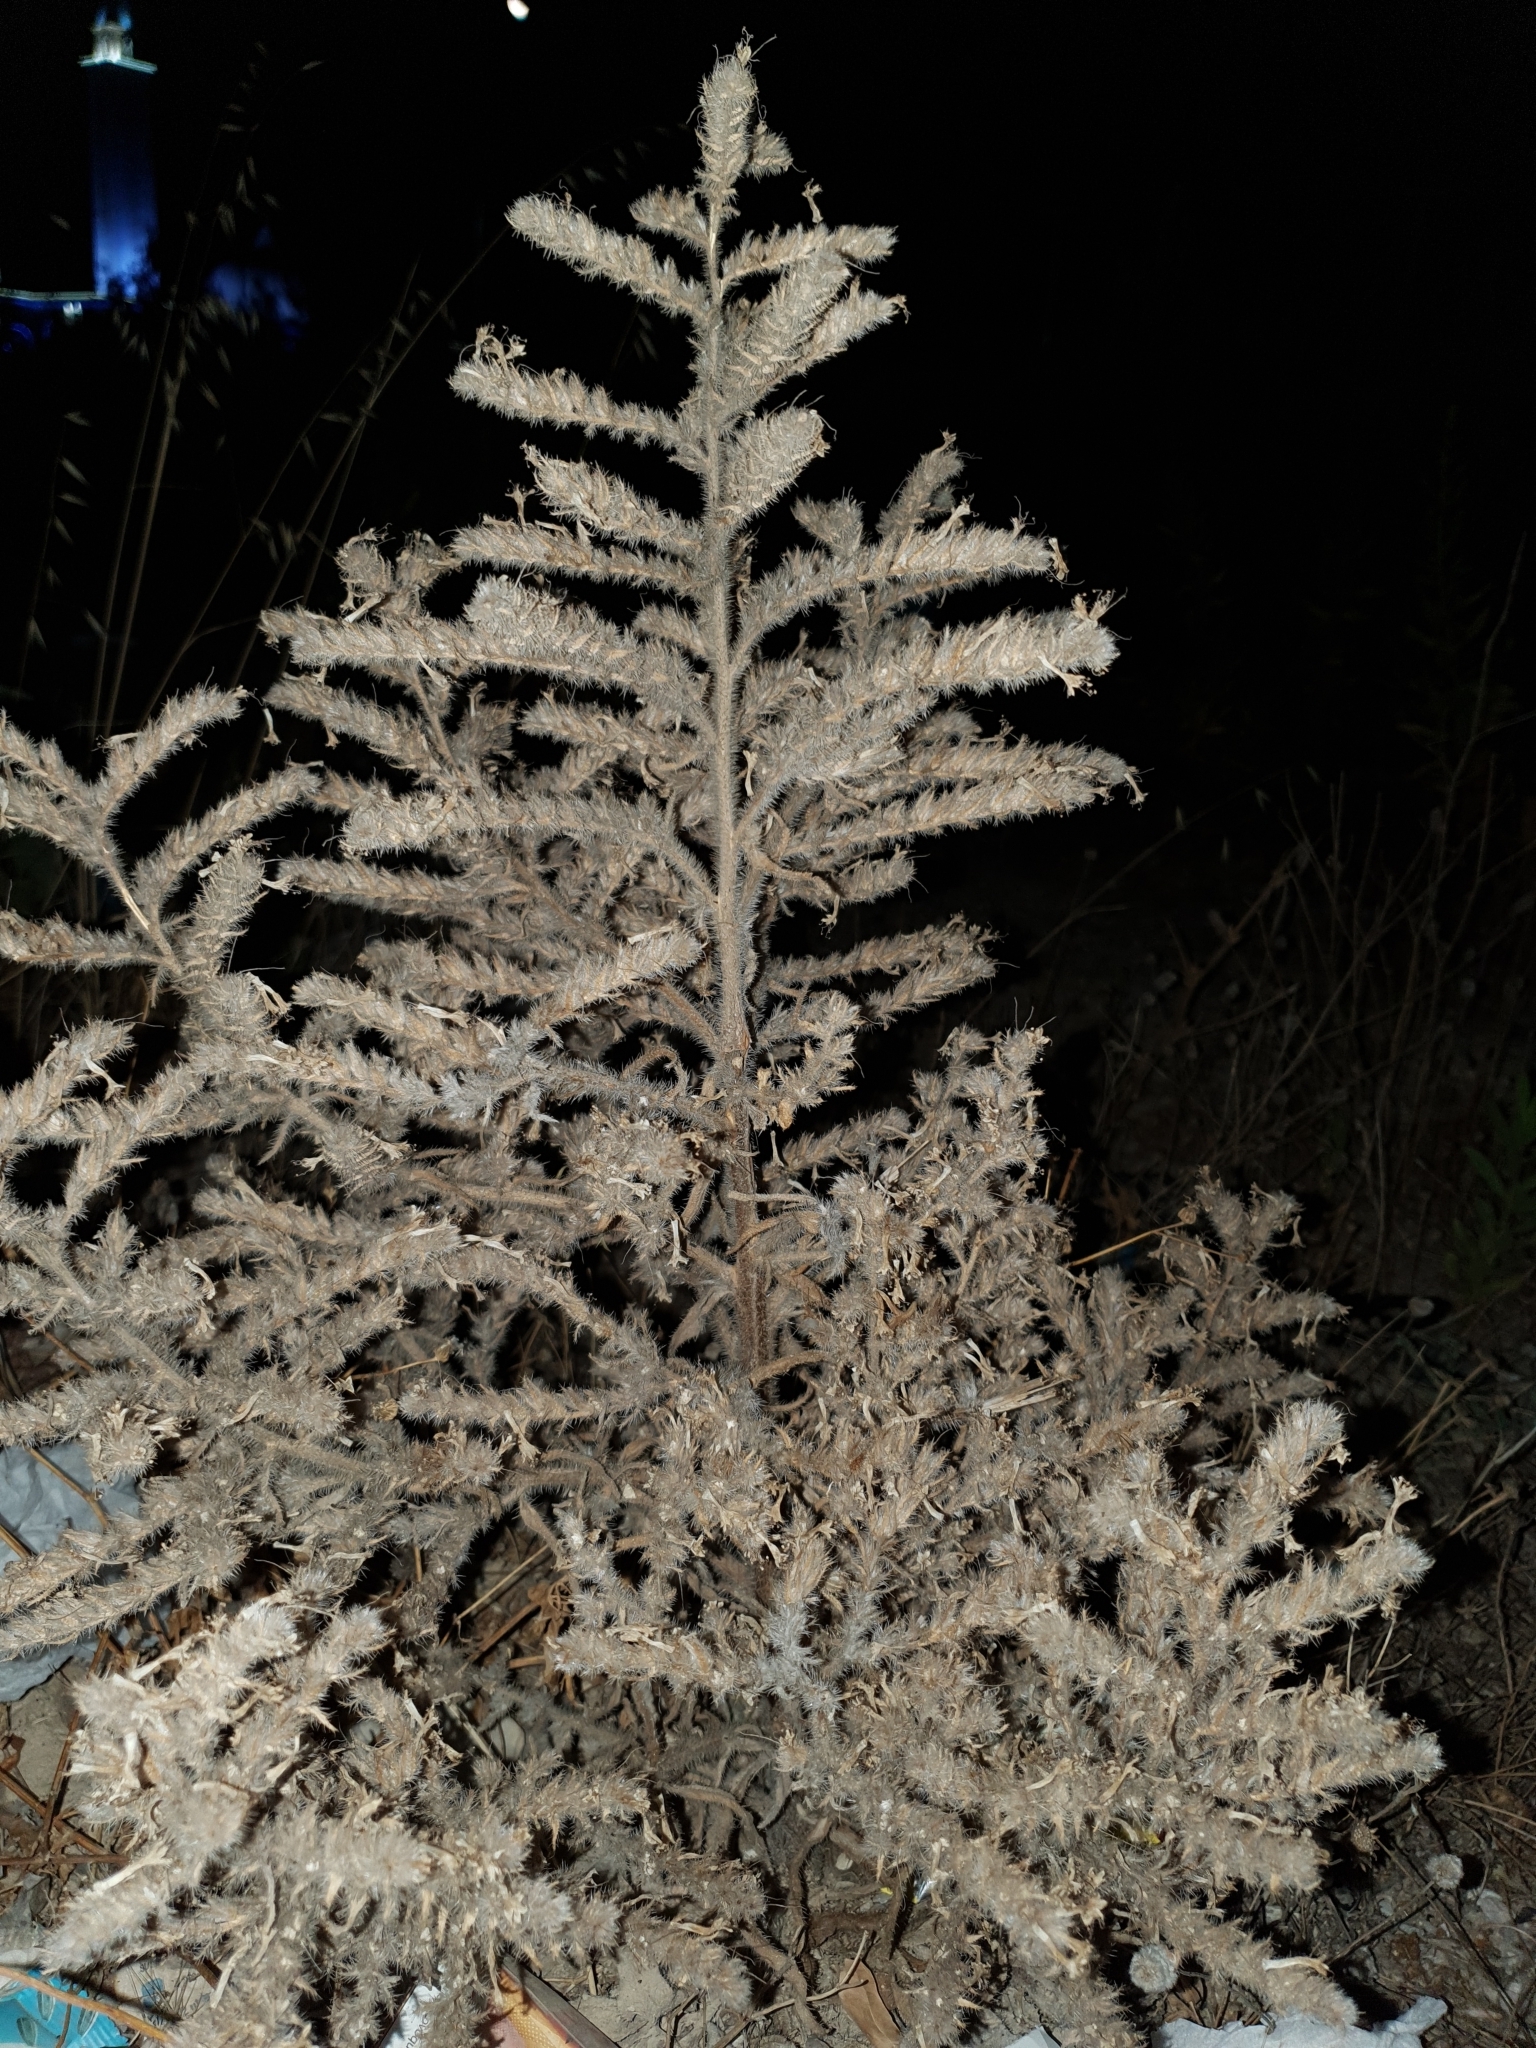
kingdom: Plantae
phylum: Tracheophyta
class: Magnoliopsida
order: Boraginales
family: Boraginaceae
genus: Echium
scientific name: Echium asperrimum
